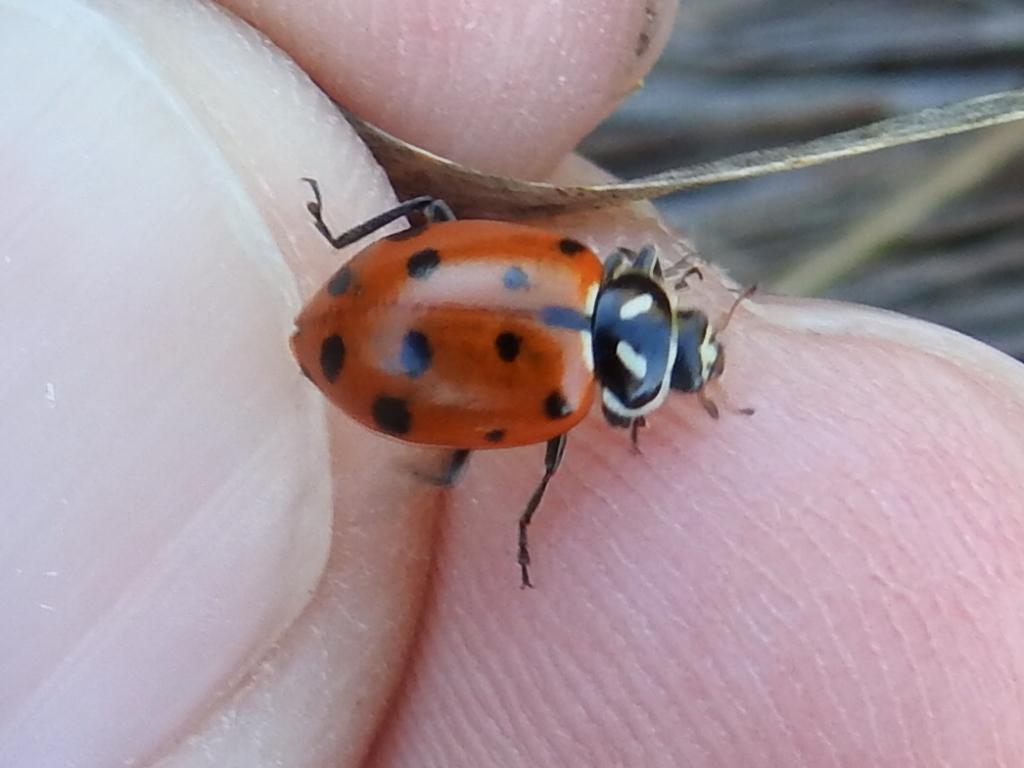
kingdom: Animalia
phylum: Arthropoda
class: Insecta
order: Coleoptera
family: Coccinellidae
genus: Hippodamia
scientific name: Hippodamia convergens
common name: Convergent lady beetle
